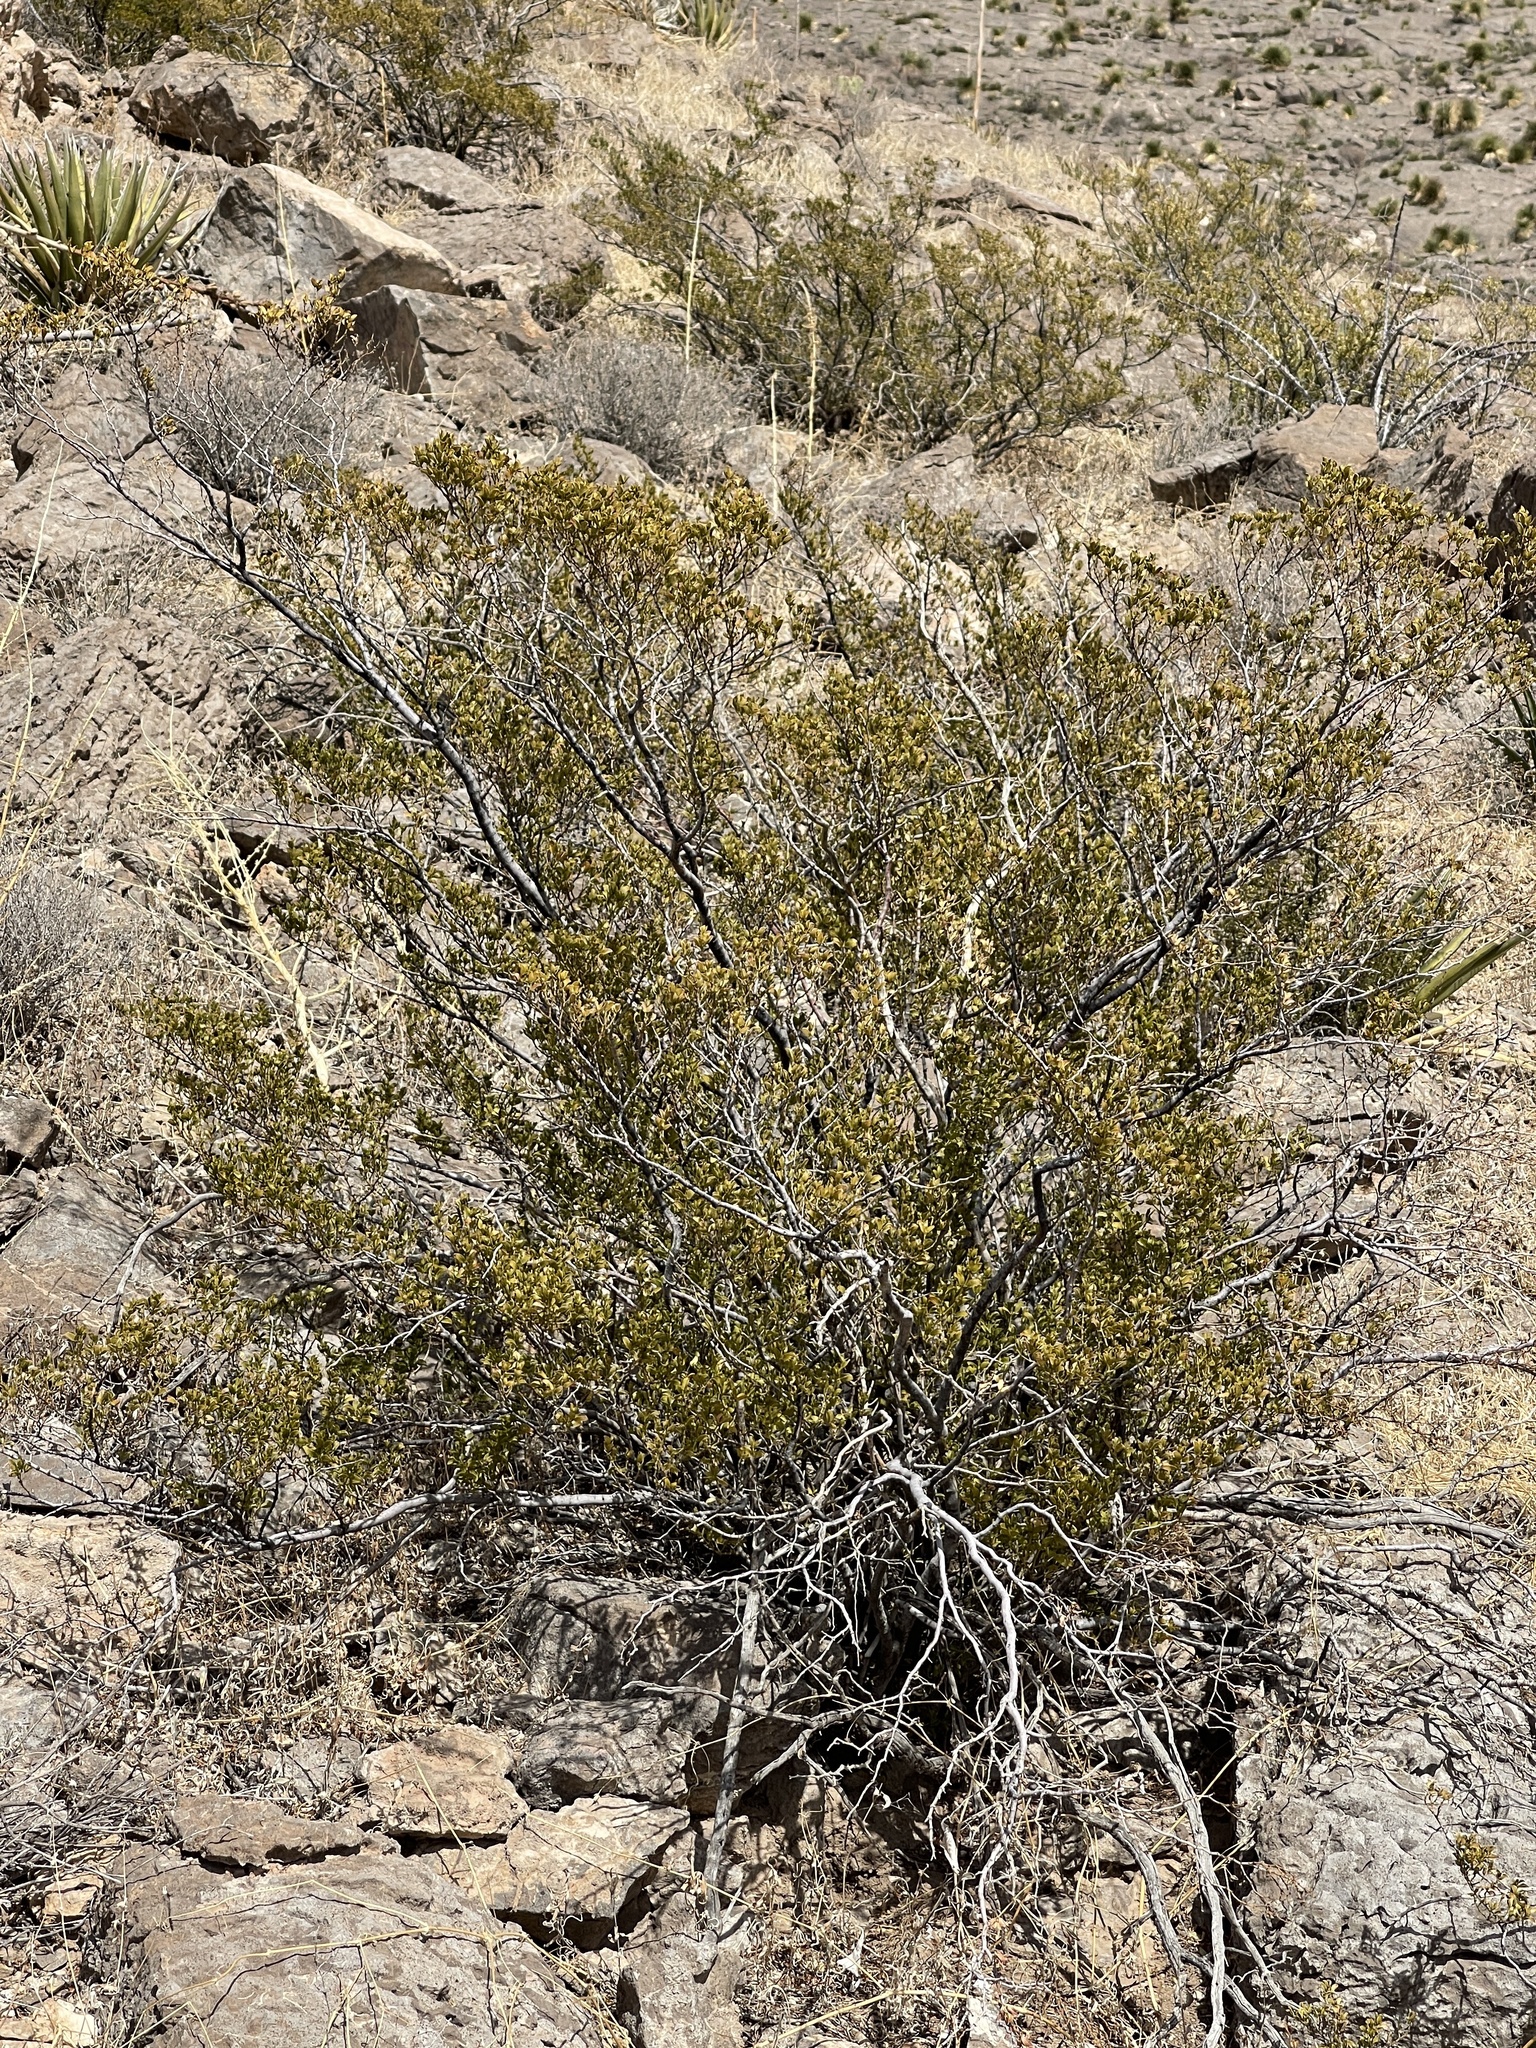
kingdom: Plantae
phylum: Tracheophyta
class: Magnoliopsida
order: Zygophyllales
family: Zygophyllaceae
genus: Larrea
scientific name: Larrea tridentata
